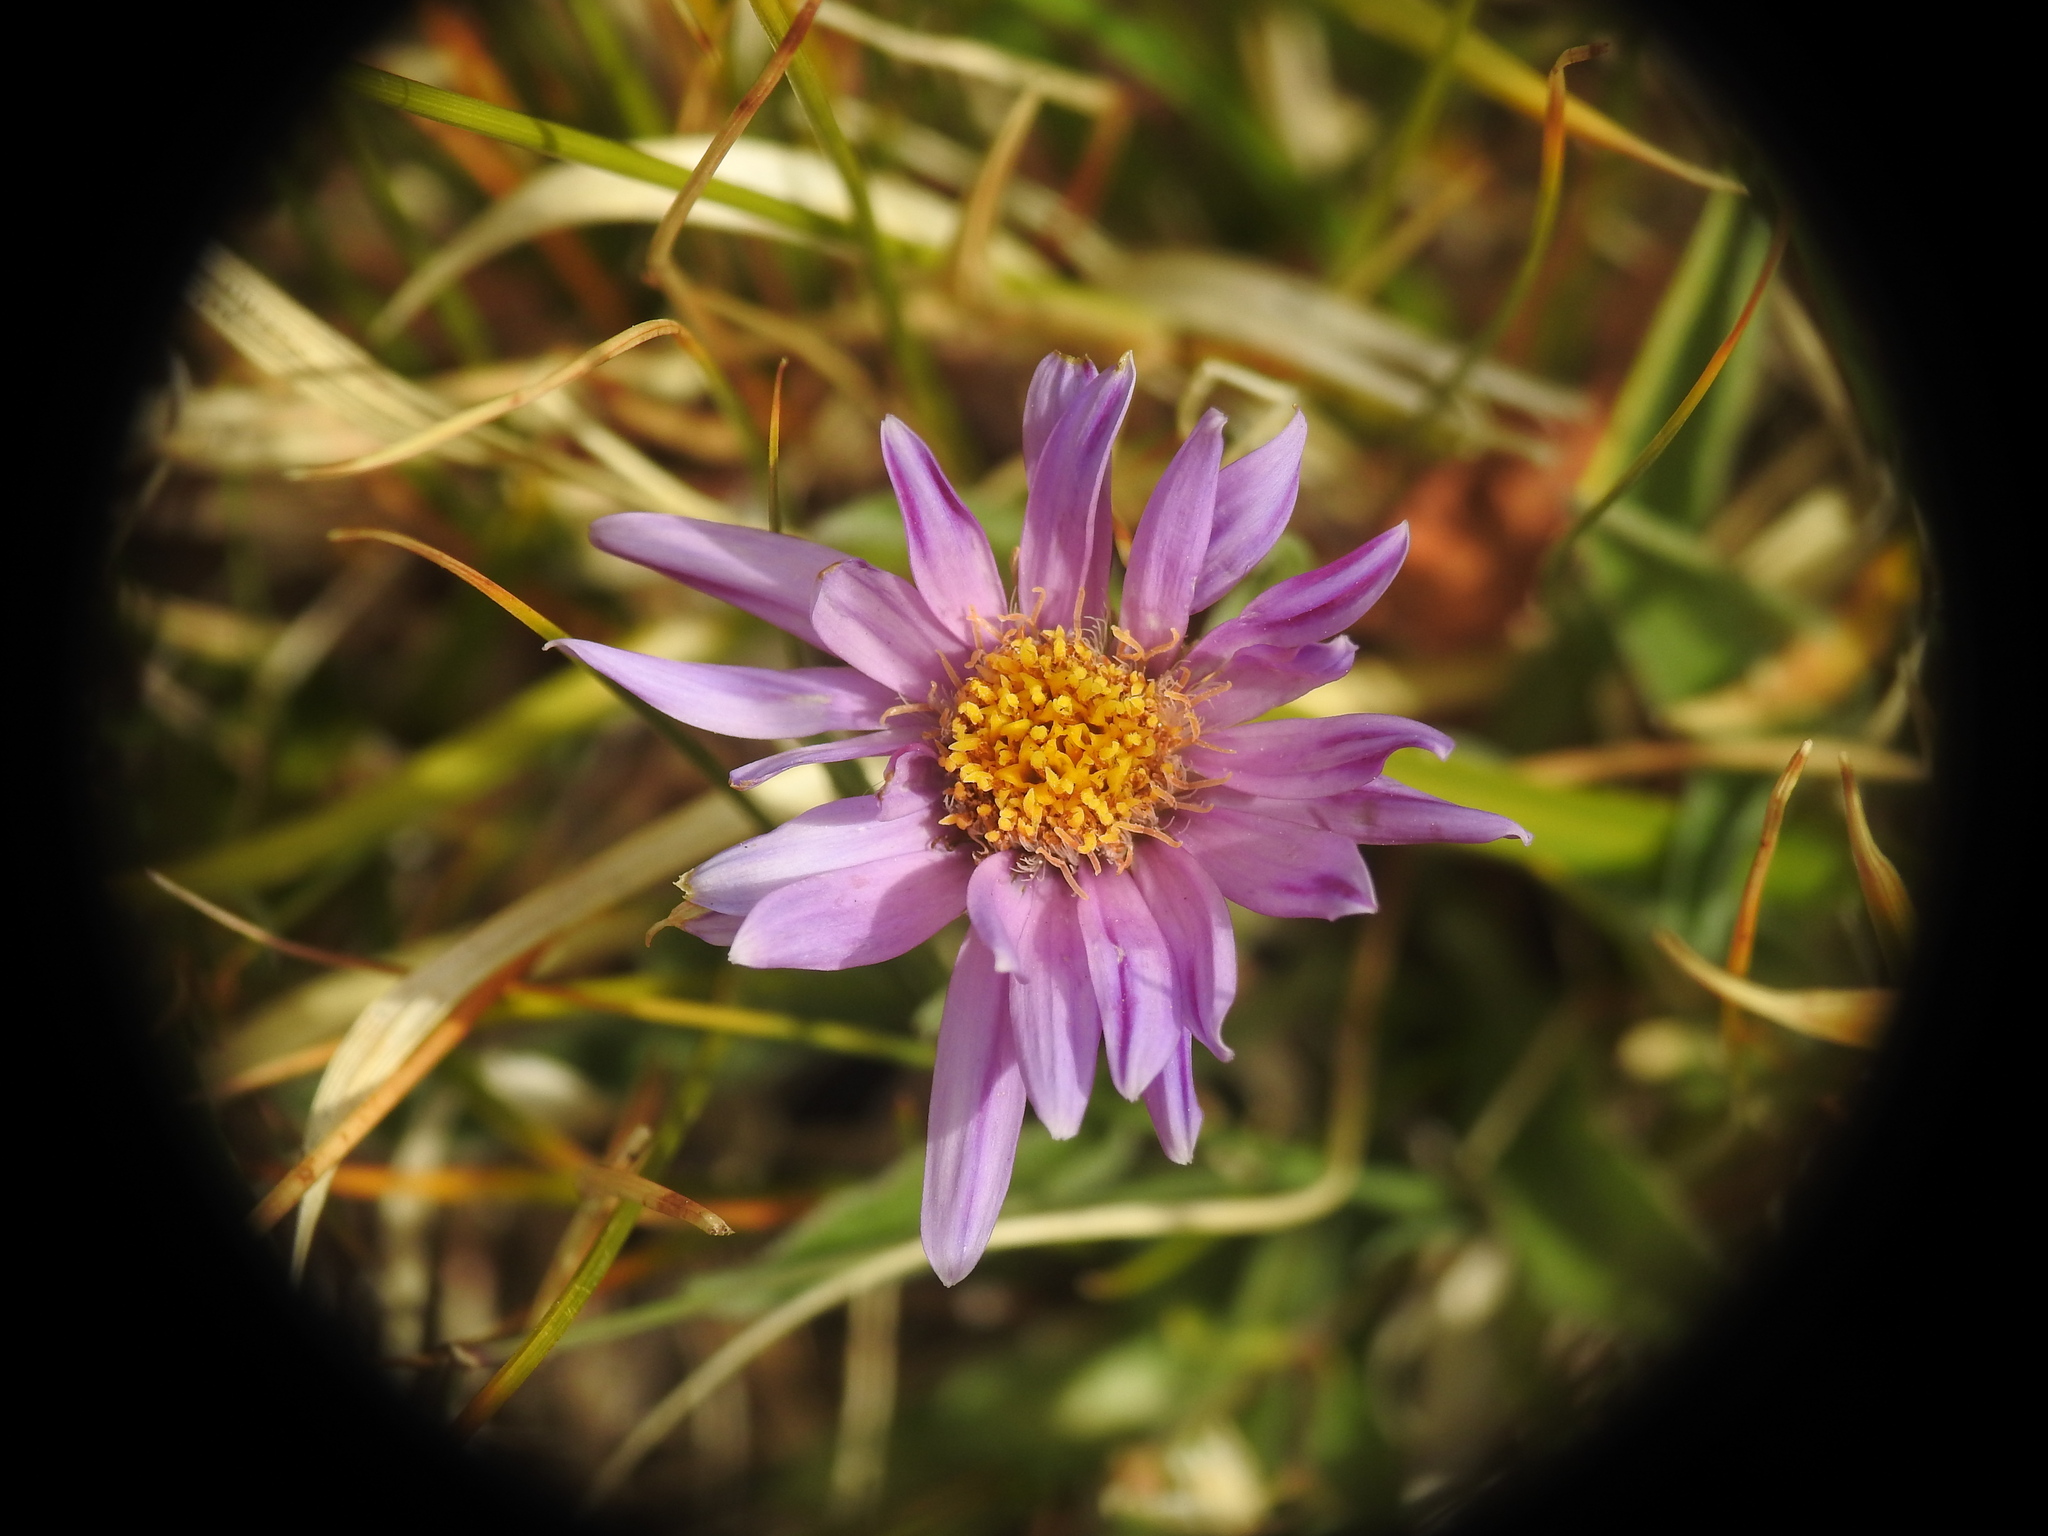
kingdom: Plantae
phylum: Tracheophyta
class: Magnoliopsida
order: Asterales
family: Asteraceae
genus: Aster
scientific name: Aster alpinus
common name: Alpine aster
